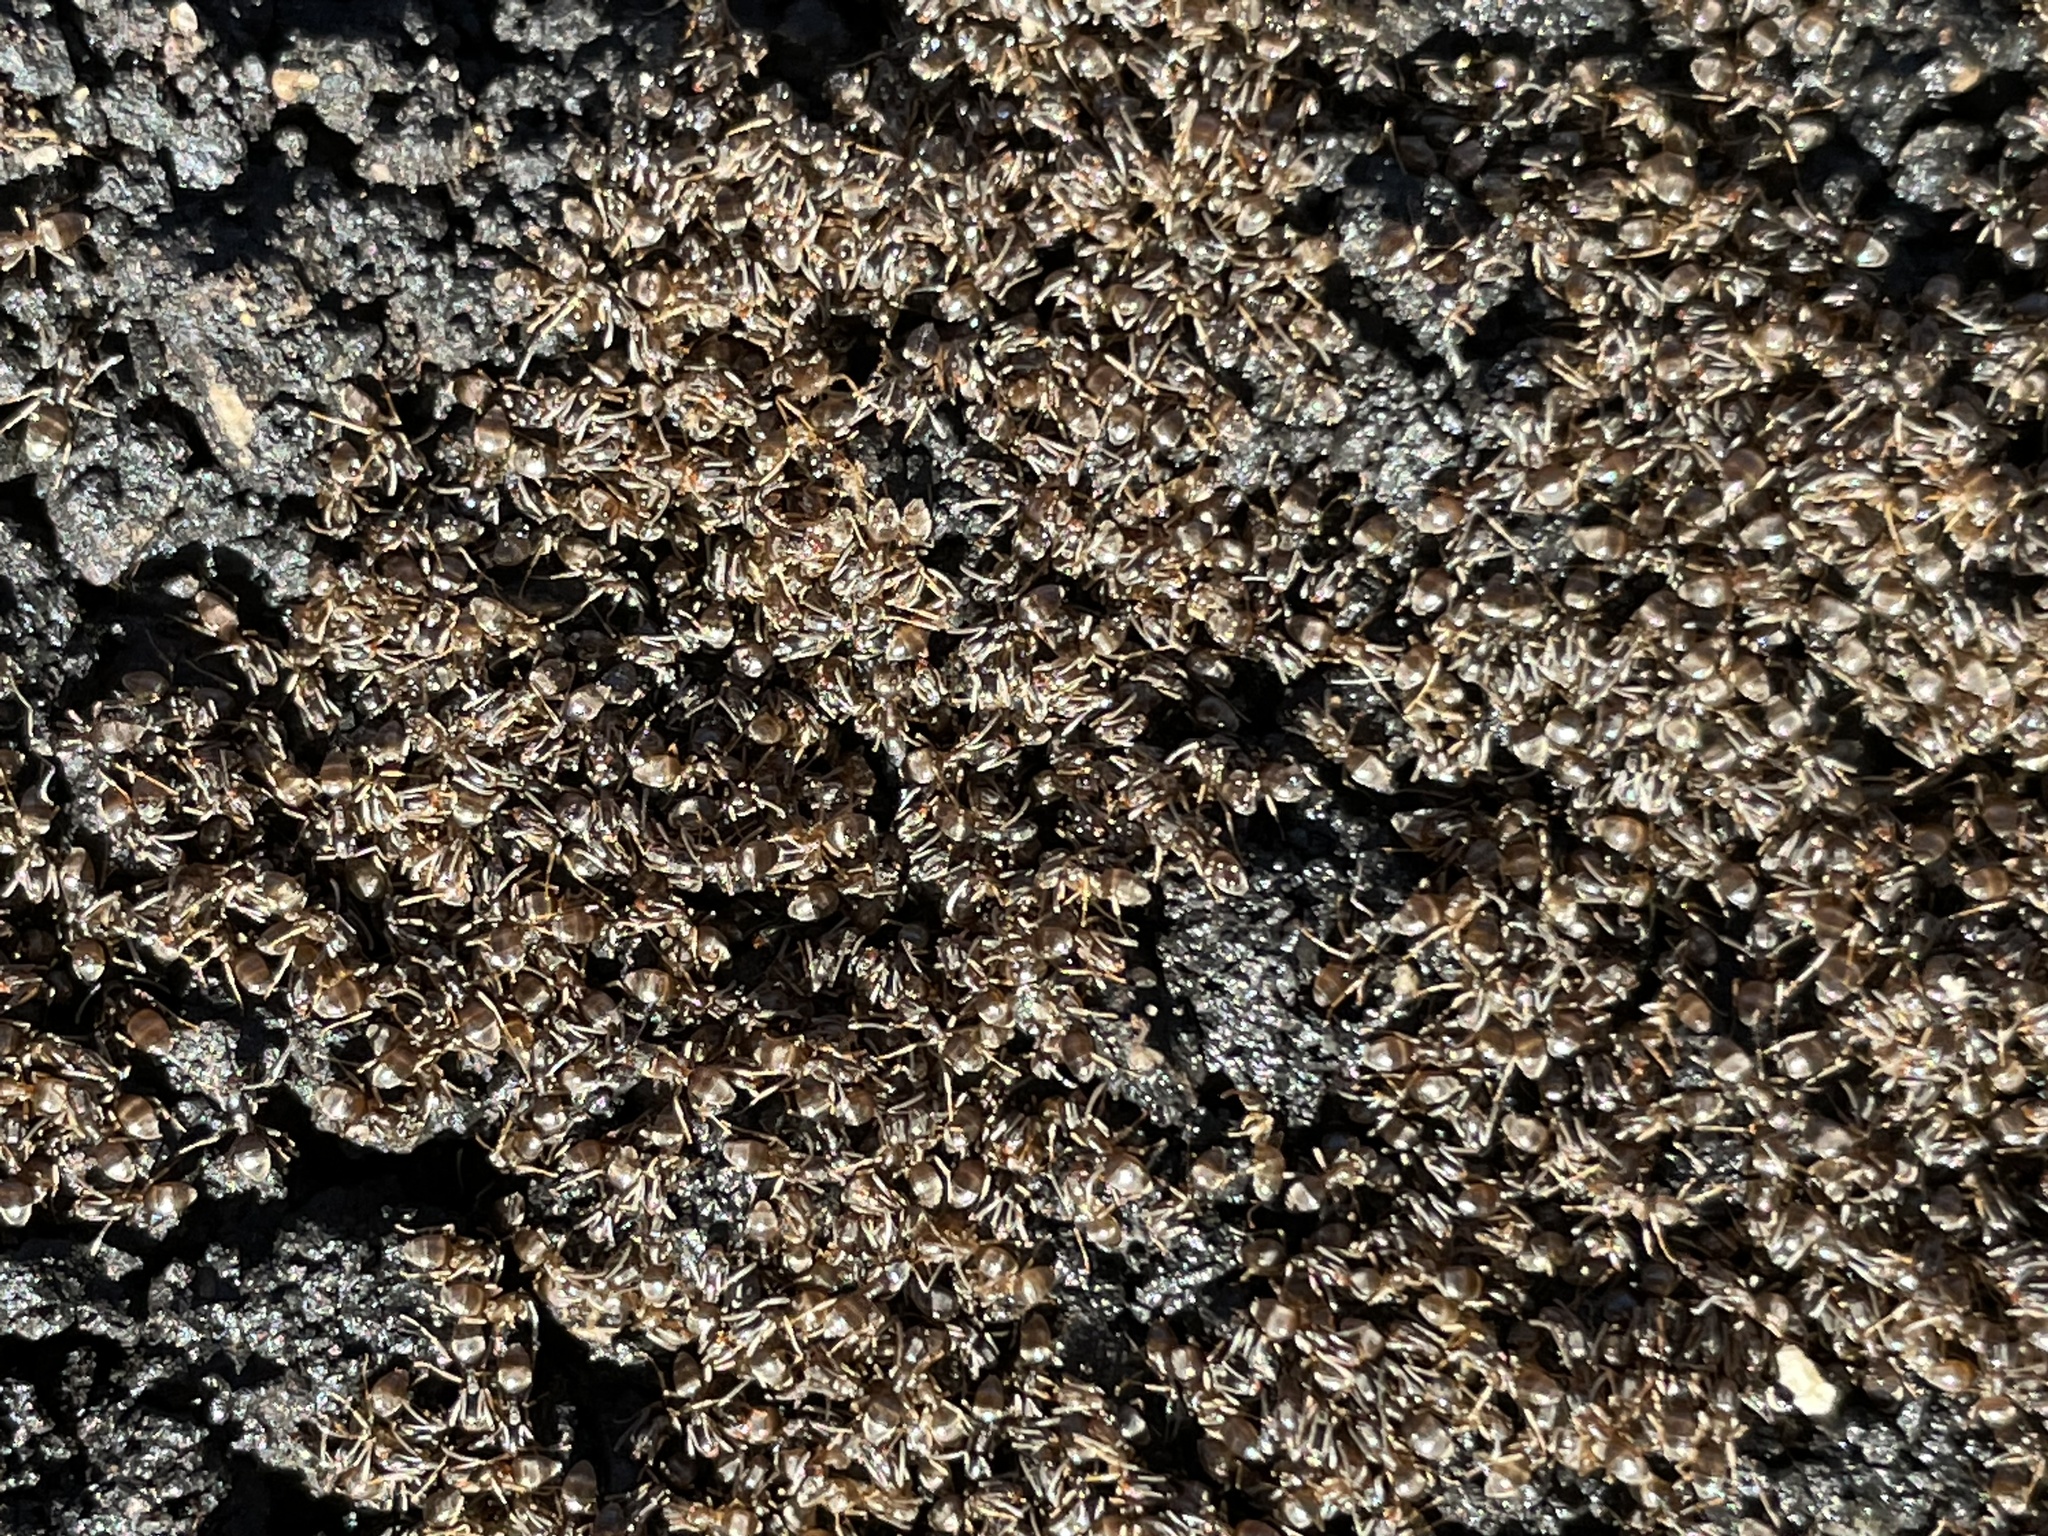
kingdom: Animalia
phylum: Arthropoda
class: Insecta
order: Hymenoptera
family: Formicidae
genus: Tapinoma
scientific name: Tapinoma sessile
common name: Odorous house ant
